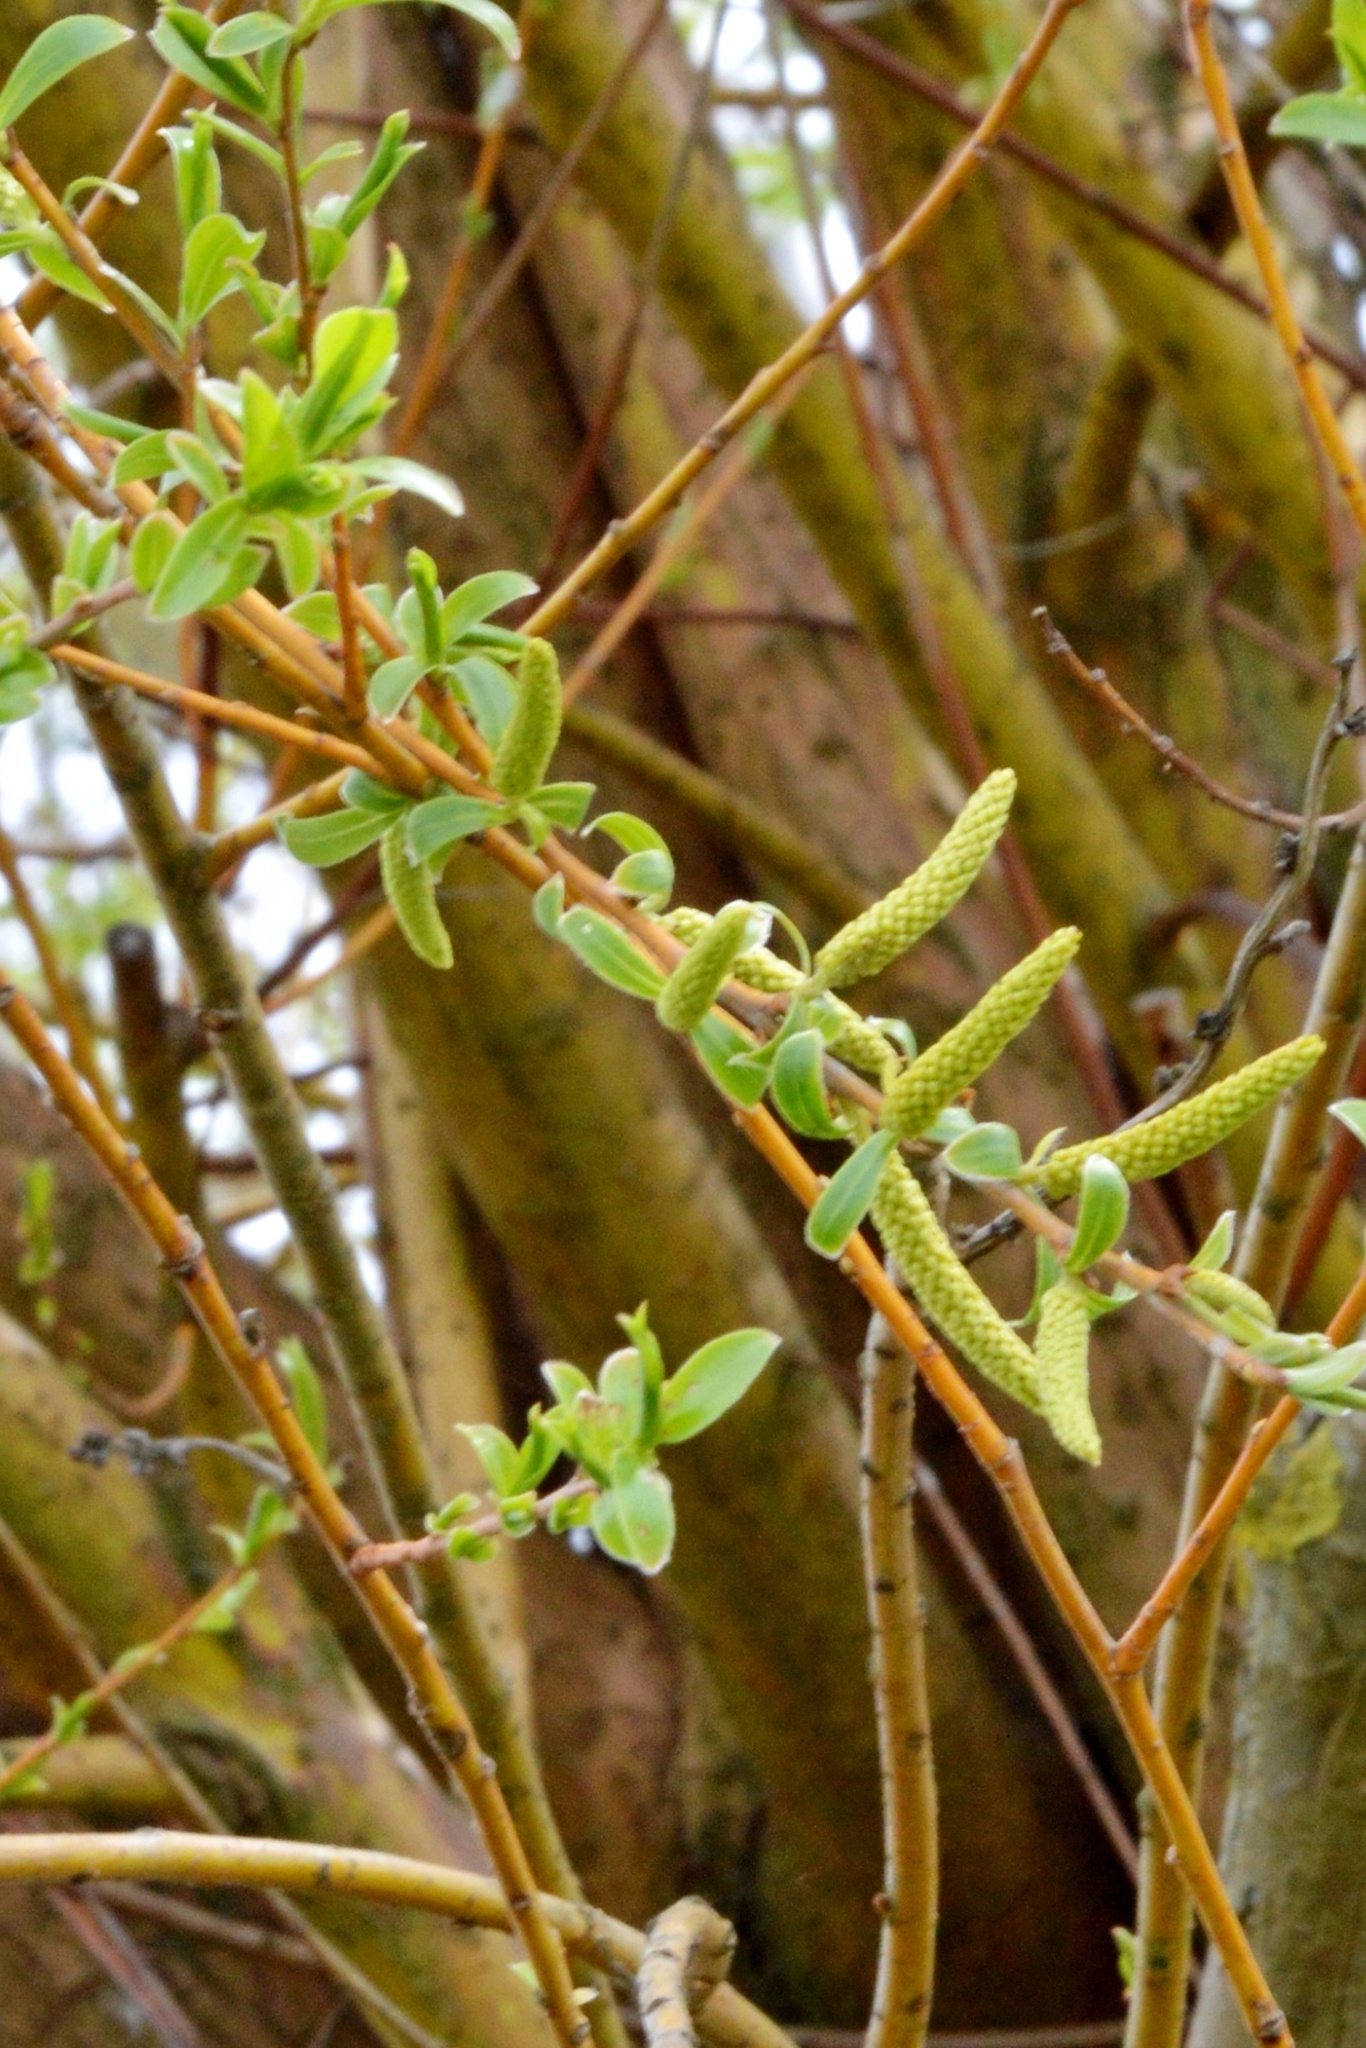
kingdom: Plantae
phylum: Tracheophyta
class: Magnoliopsida
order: Malpighiales
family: Salicaceae
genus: Salix
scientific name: Salix fragilis
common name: Crack willow
